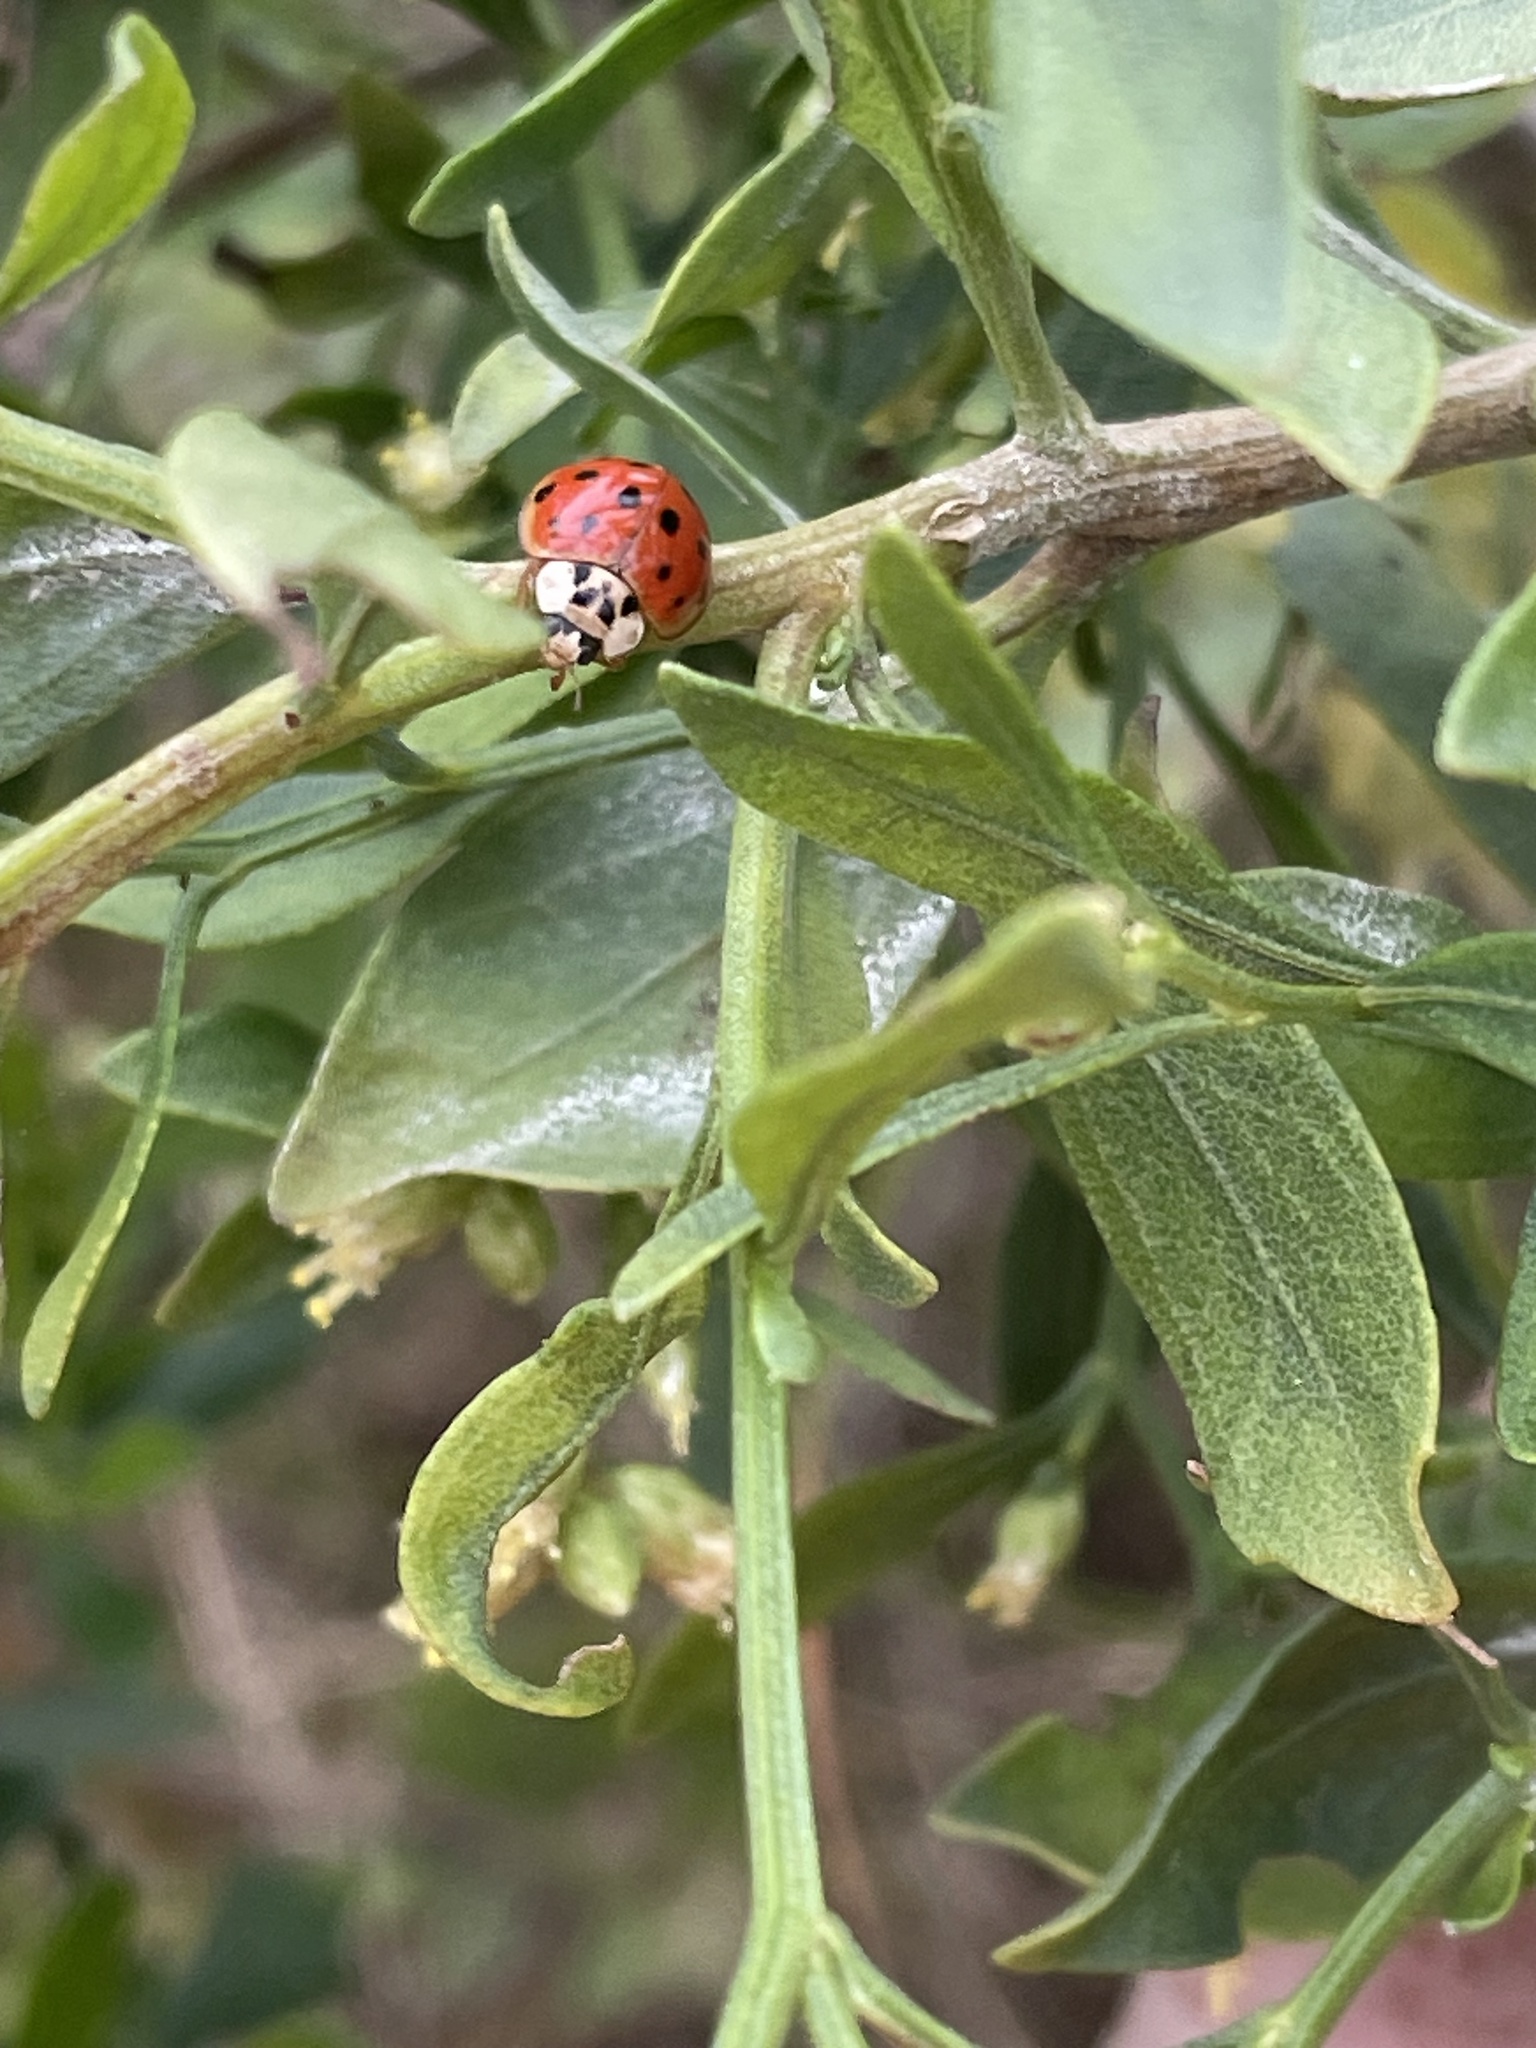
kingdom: Animalia
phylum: Arthropoda
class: Insecta
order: Coleoptera
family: Coccinellidae
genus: Harmonia
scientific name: Harmonia axyridis
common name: Harlequin ladybird
